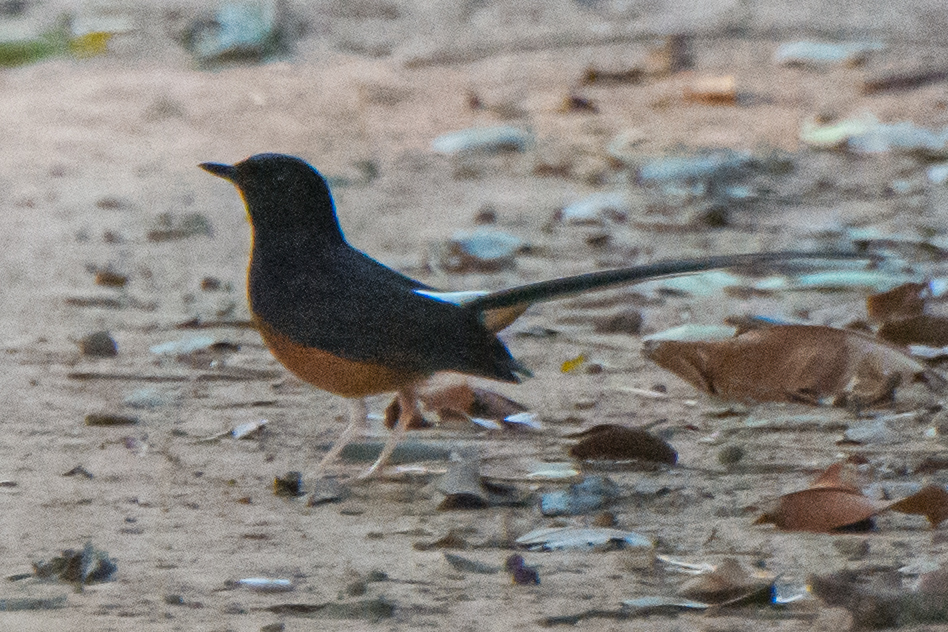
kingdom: Animalia
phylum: Chordata
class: Aves
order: Passeriformes
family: Muscicapidae
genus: Copsychus
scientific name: Copsychus malabaricus
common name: White-rumped shama
